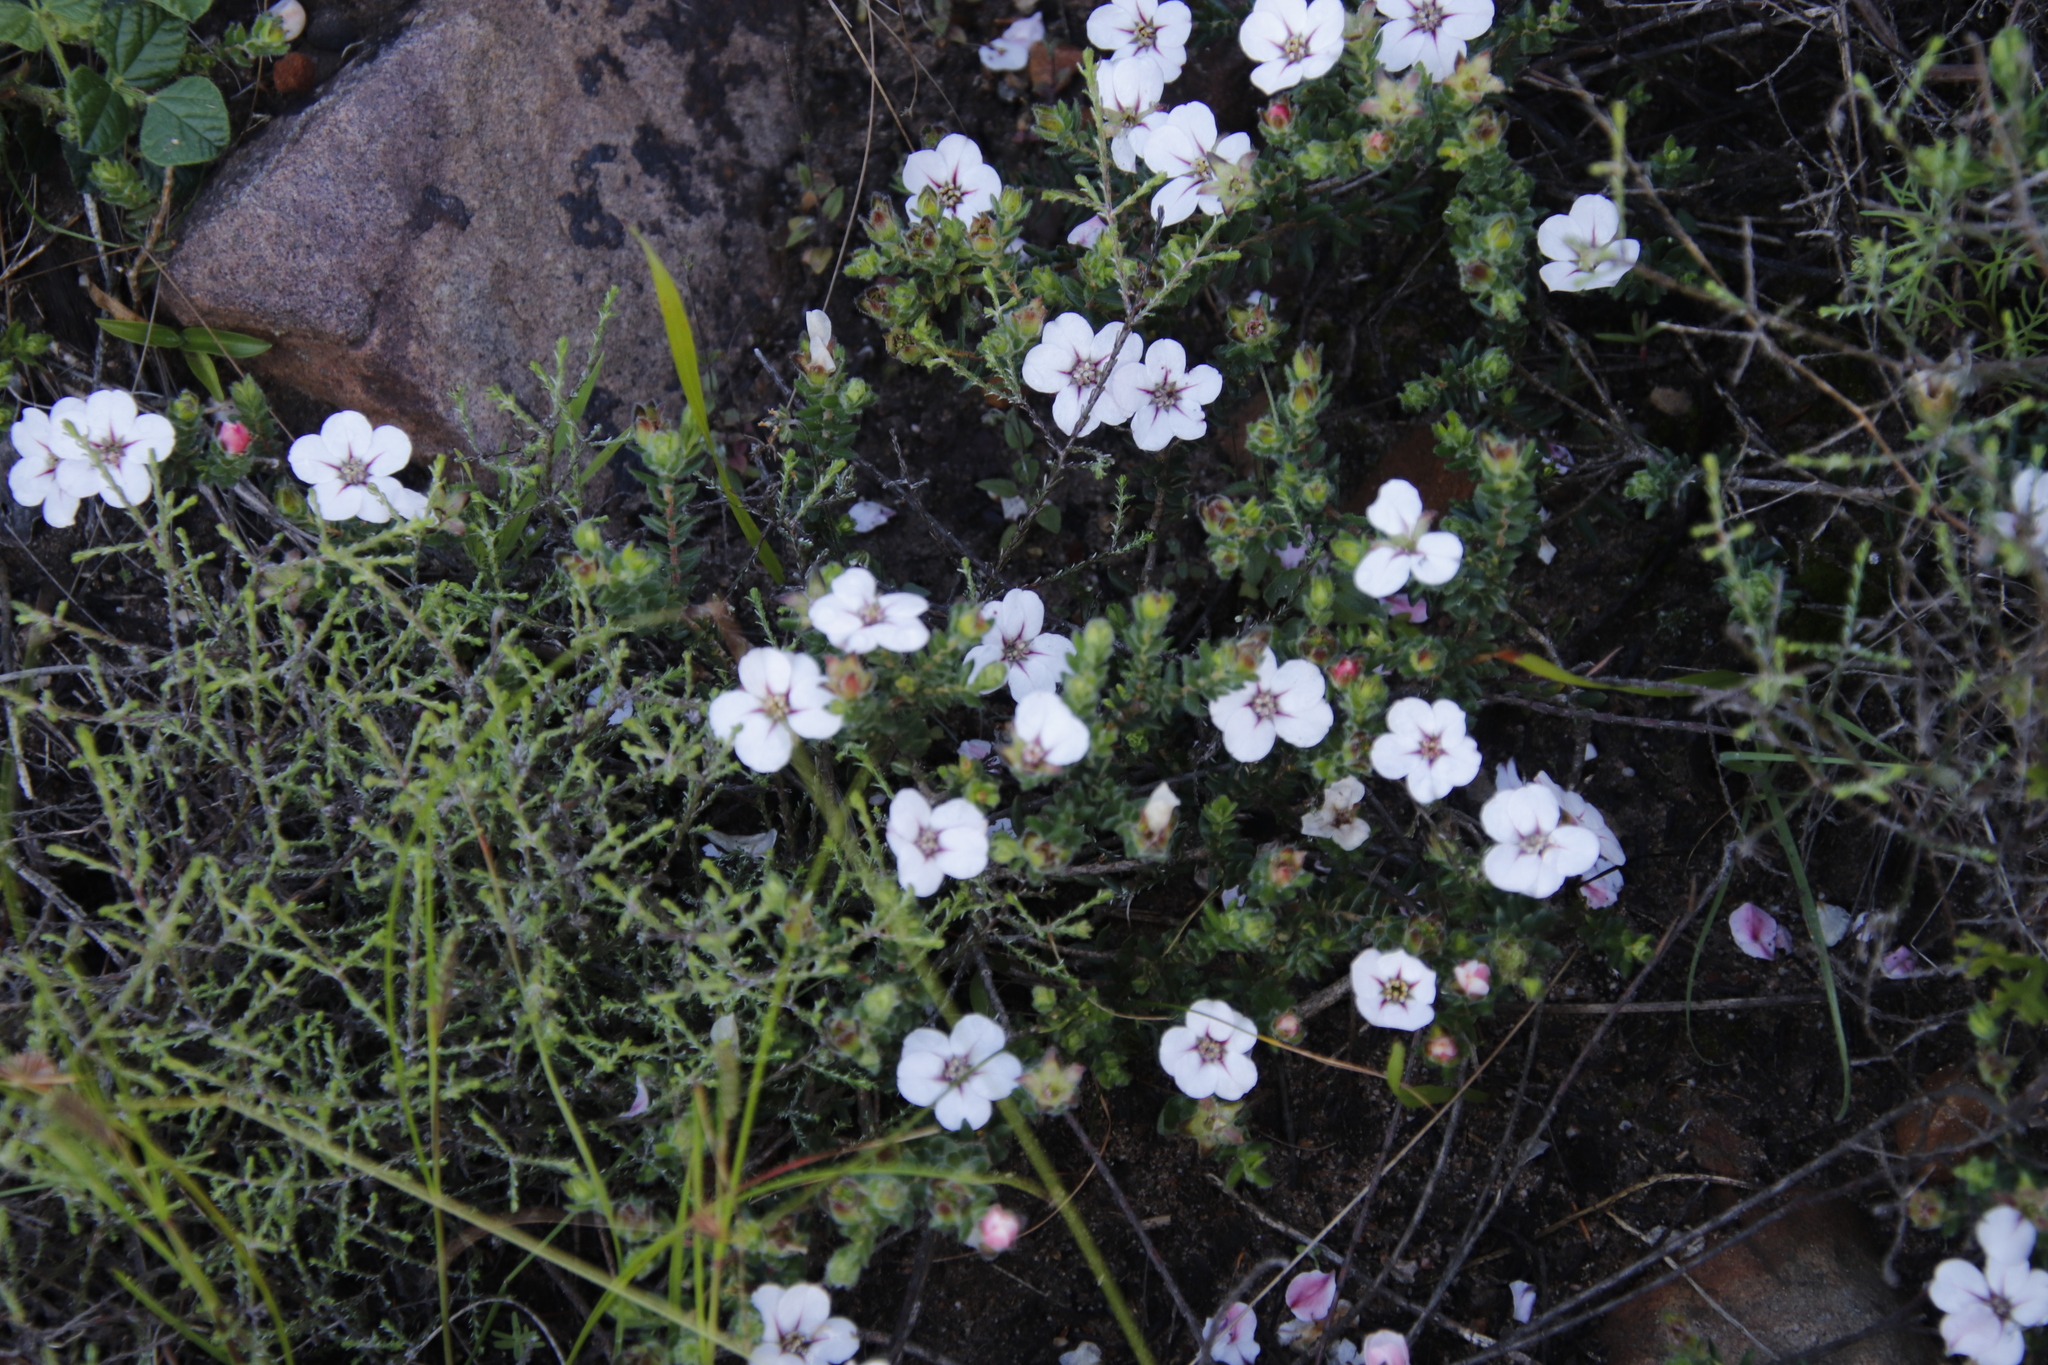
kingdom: Plantae
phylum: Tracheophyta
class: Magnoliopsida
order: Sapindales
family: Rutaceae
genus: Adenandra
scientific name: Adenandra uniflora
